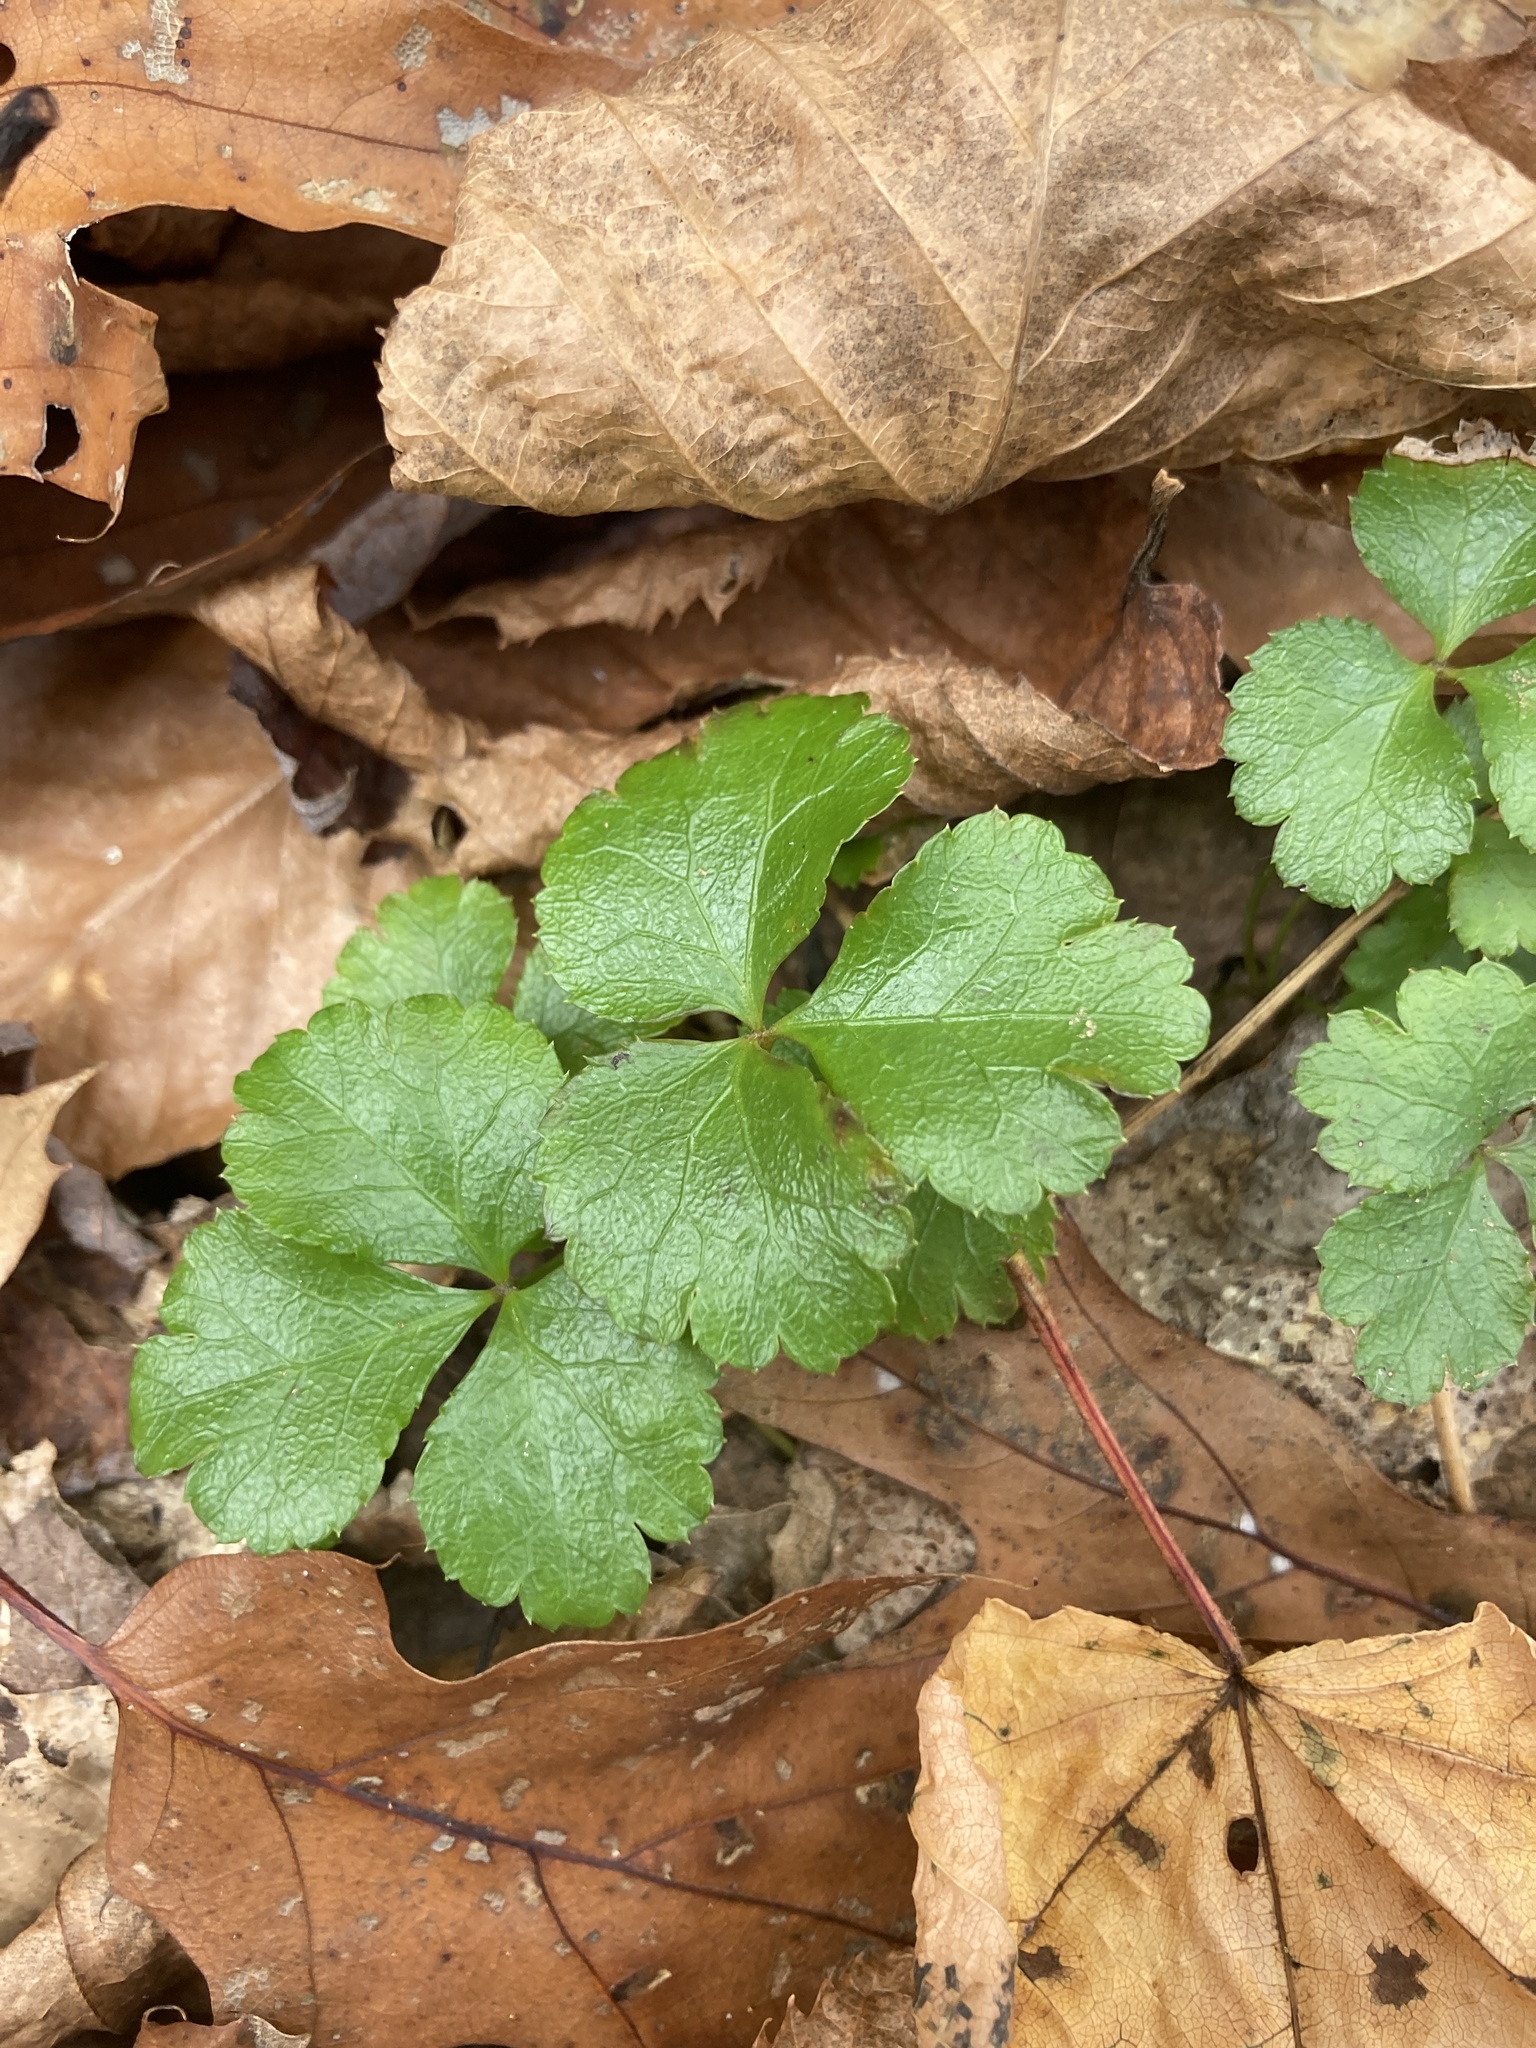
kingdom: Plantae
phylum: Tracheophyta
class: Magnoliopsida
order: Ranunculales
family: Ranunculaceae
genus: Coptis
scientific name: Coptis trifolia
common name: Canker-root
